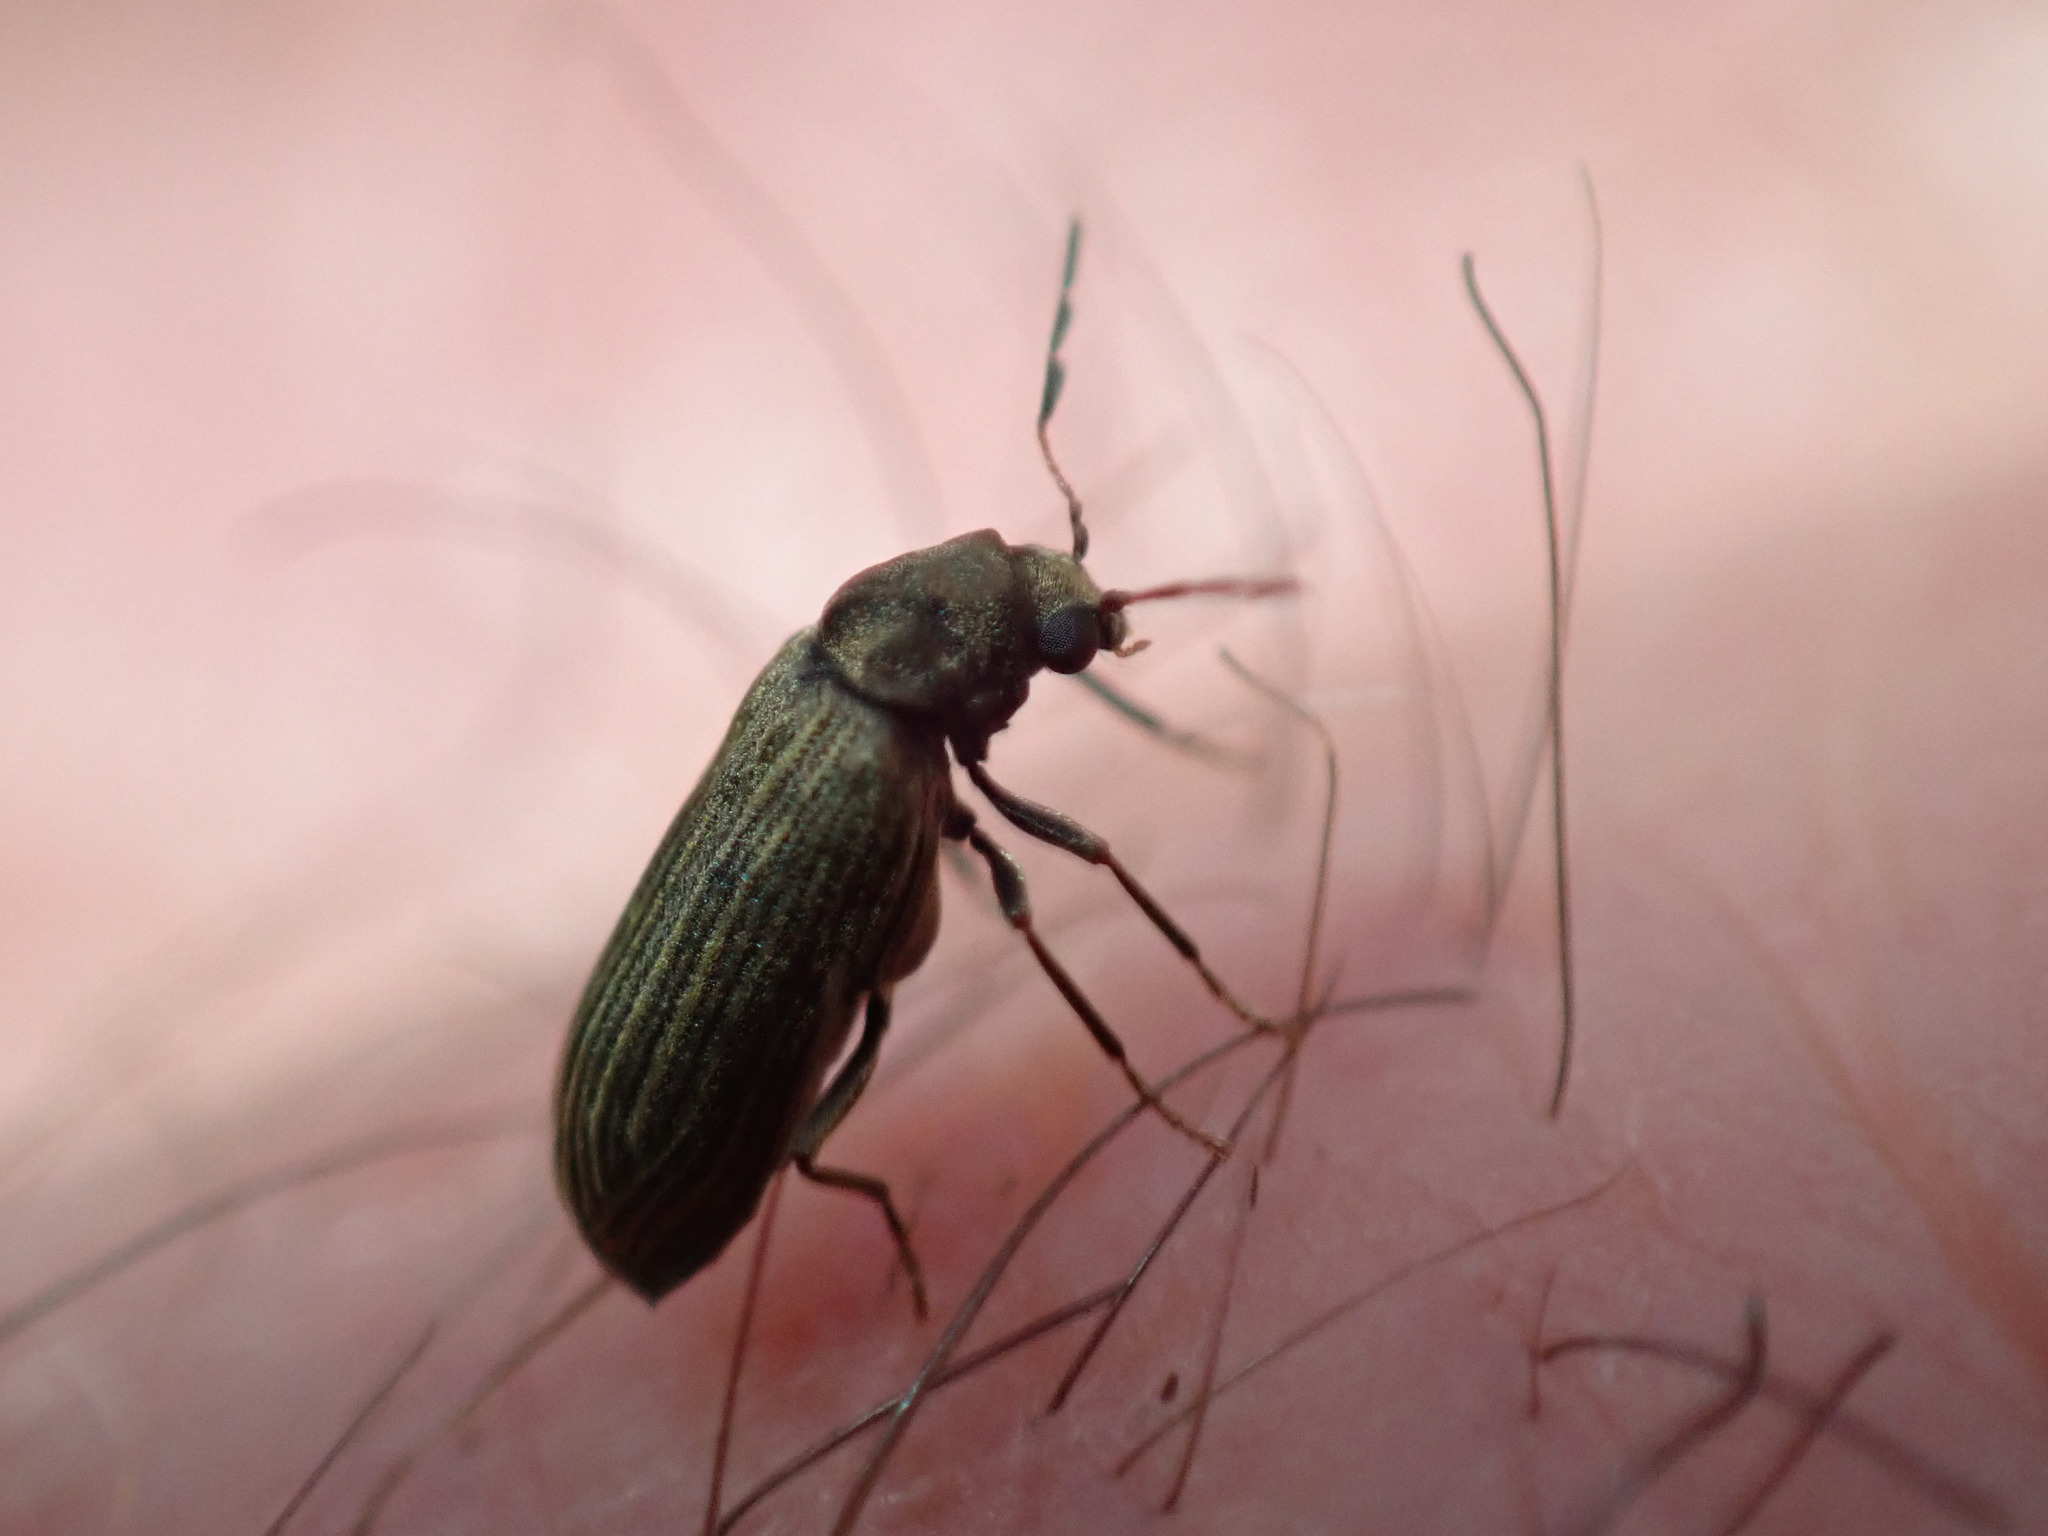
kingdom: Animalia
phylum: Arthropoda
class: Insecta
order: Coleoptera
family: Anobiidae
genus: Hemicoelus
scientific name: Hemicoelus gibbicollis
